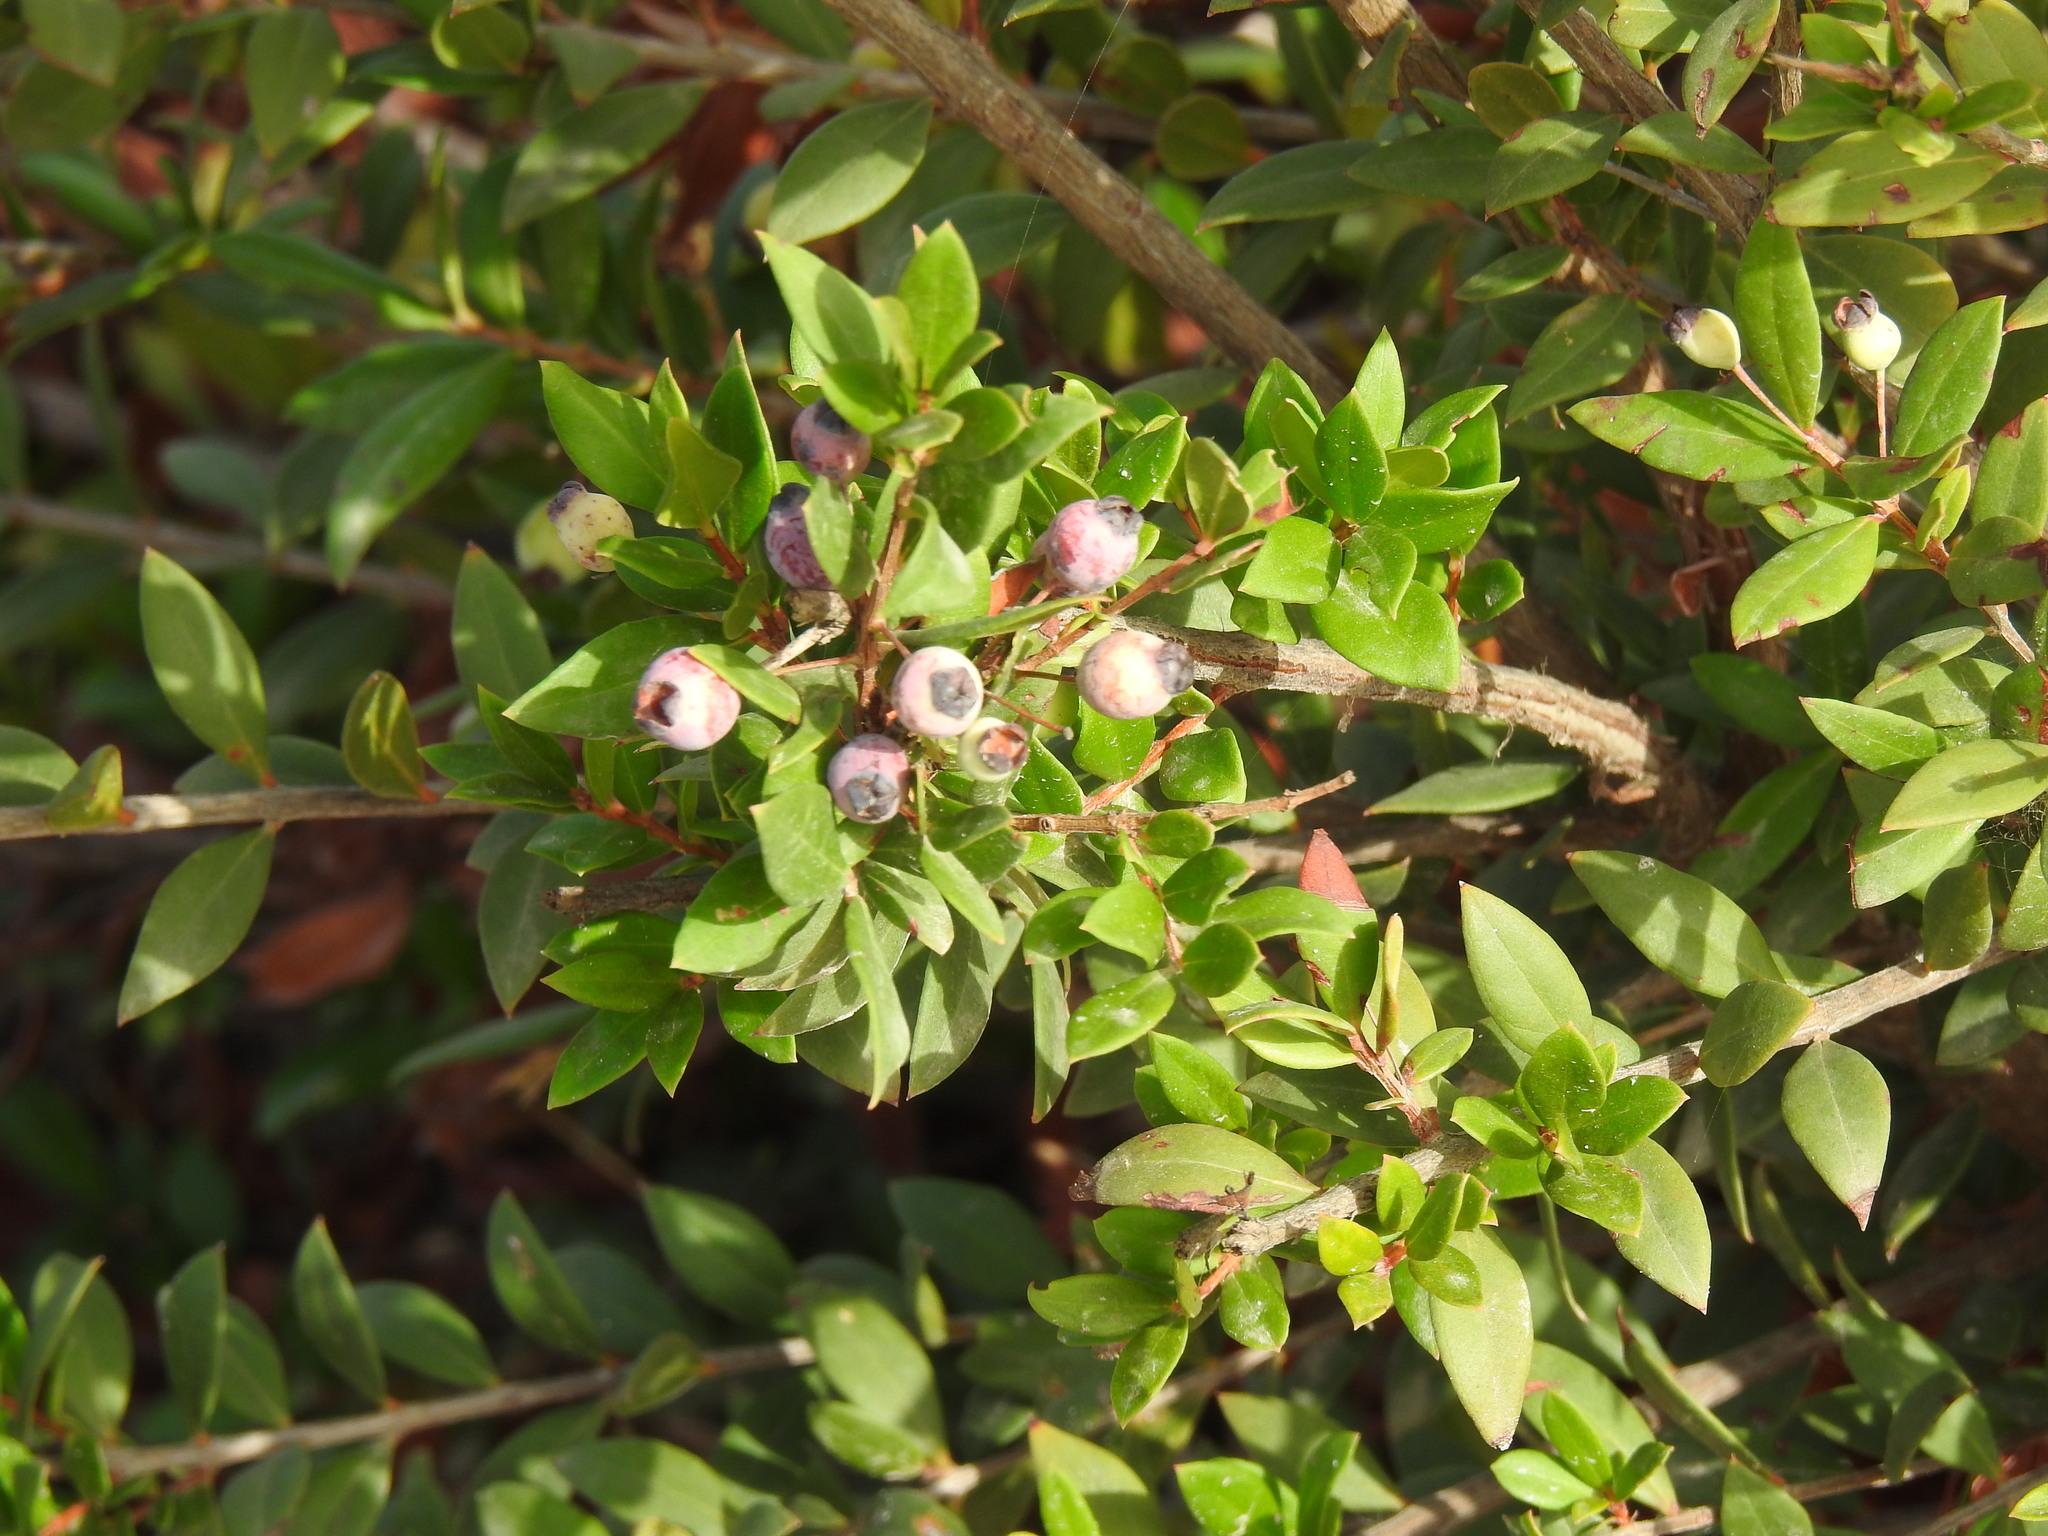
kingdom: Plantae
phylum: Tracheophyta
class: Magnoliopsida
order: Myrtales
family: Myrtaceae
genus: Myrtus
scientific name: Myrtus communis
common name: Myrtle
